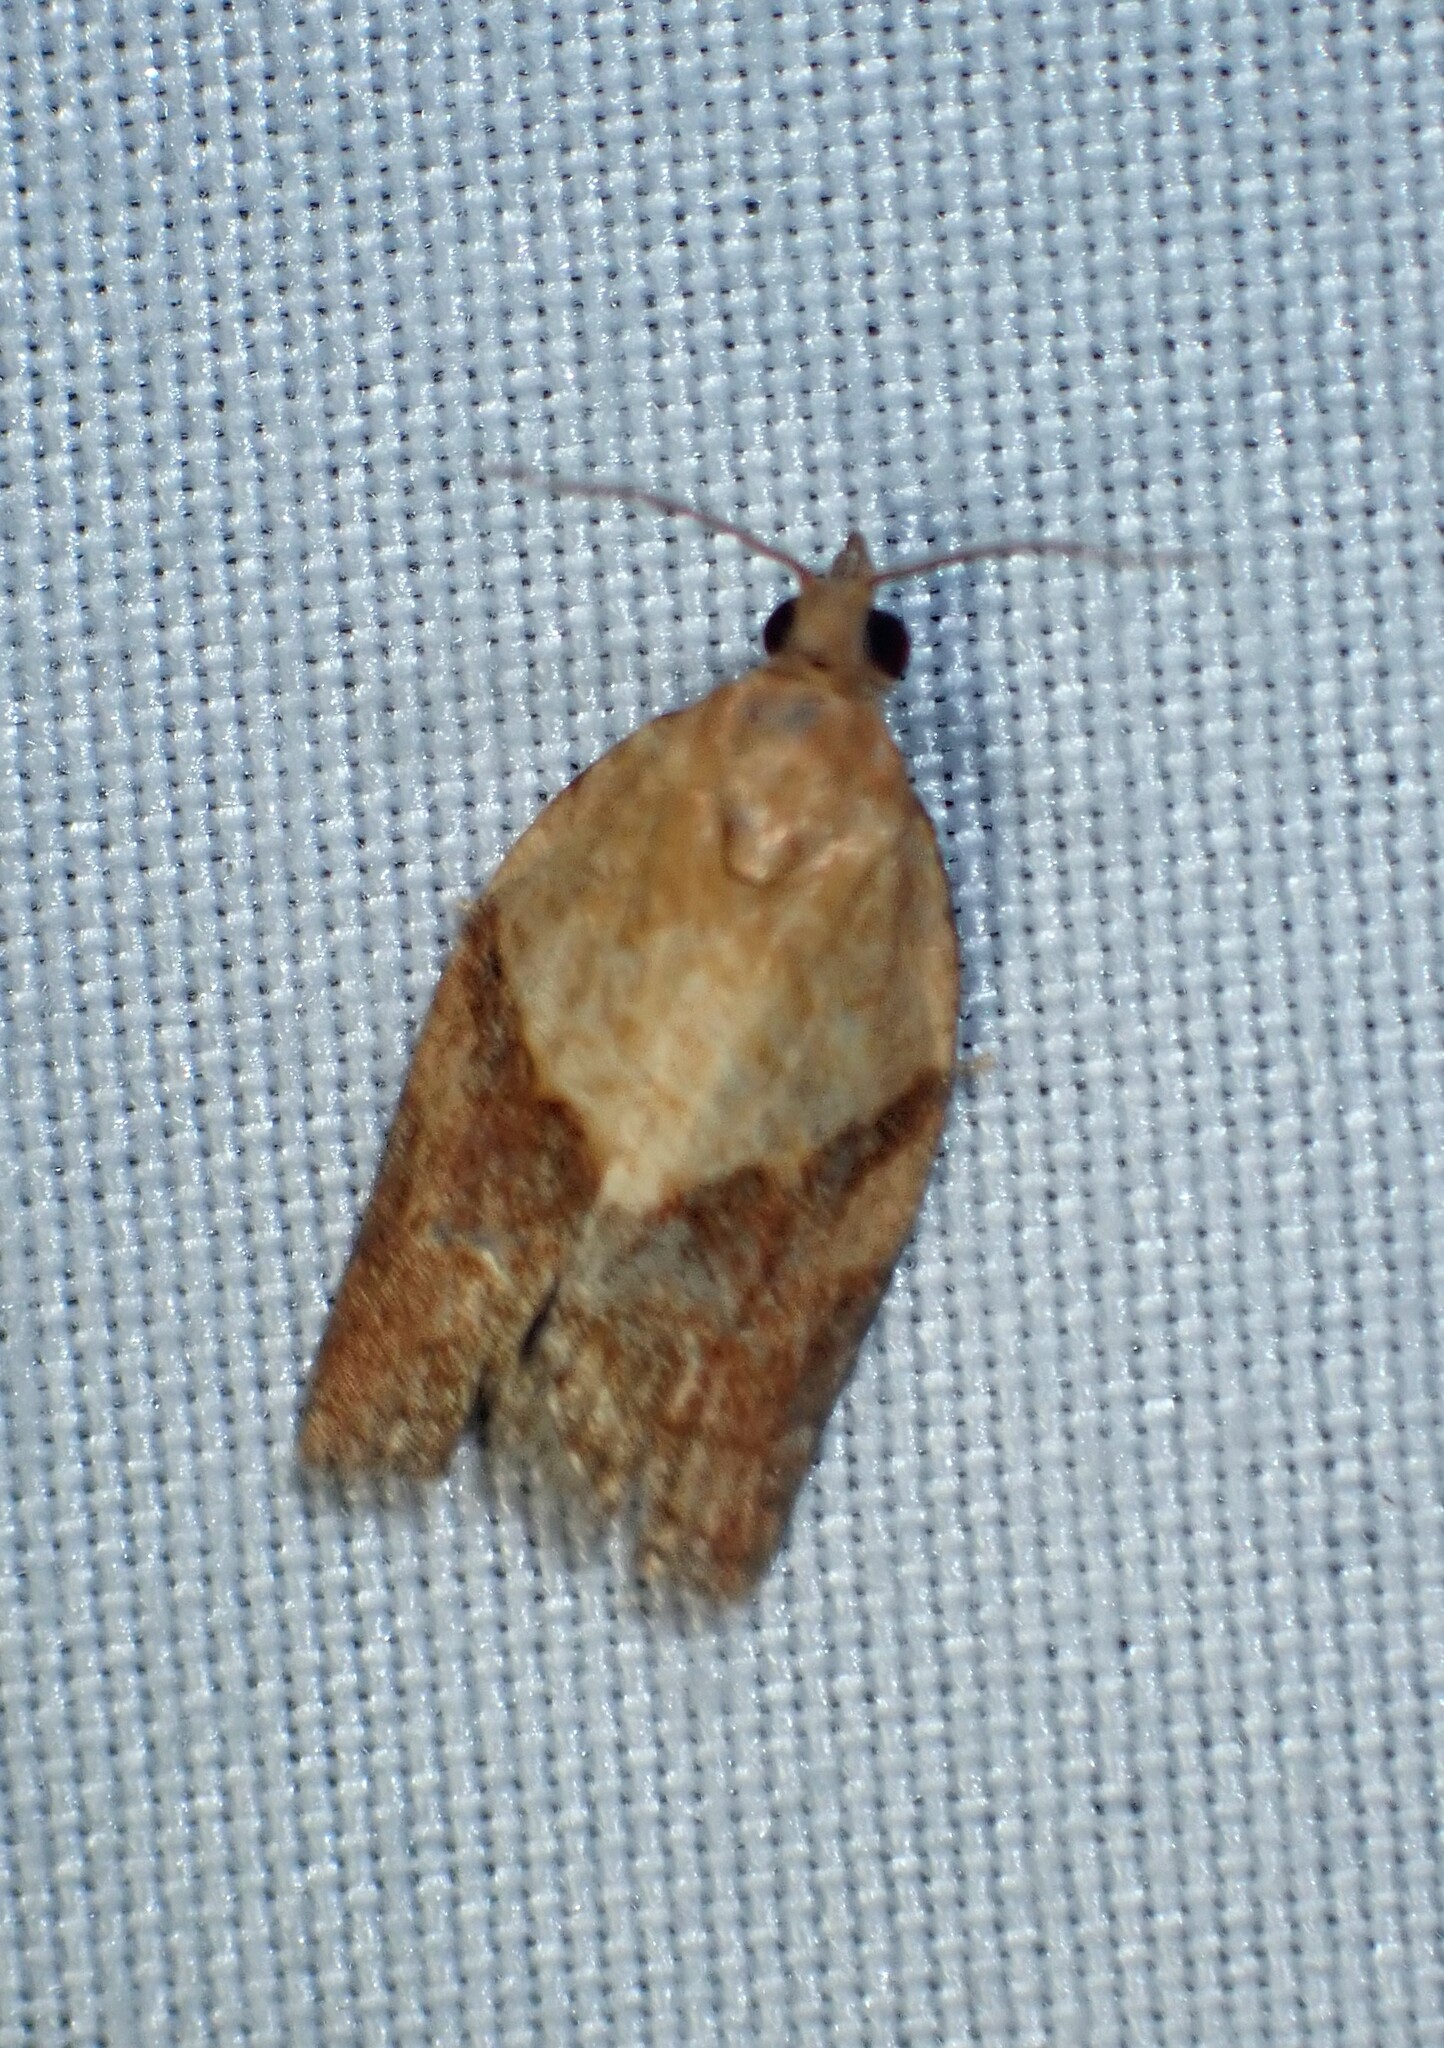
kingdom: Animalia
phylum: Arthropoda
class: Insecta
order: Lepidoptera
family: Tortricidae
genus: Epiphyas
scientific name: Epiphyas postvittana
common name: Light brown apple moth
